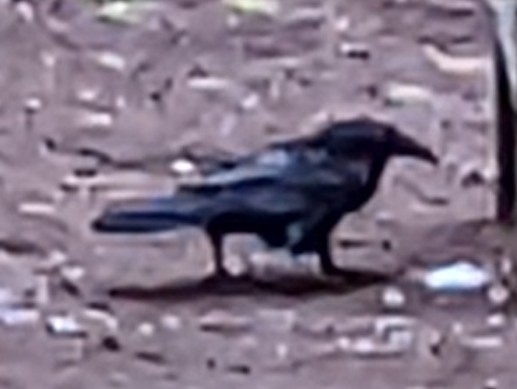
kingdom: Animalia
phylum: Chordata
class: Aves
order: Passeriformes
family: Corvidae
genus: Corvus
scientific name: Corvus corax
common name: Common raven
